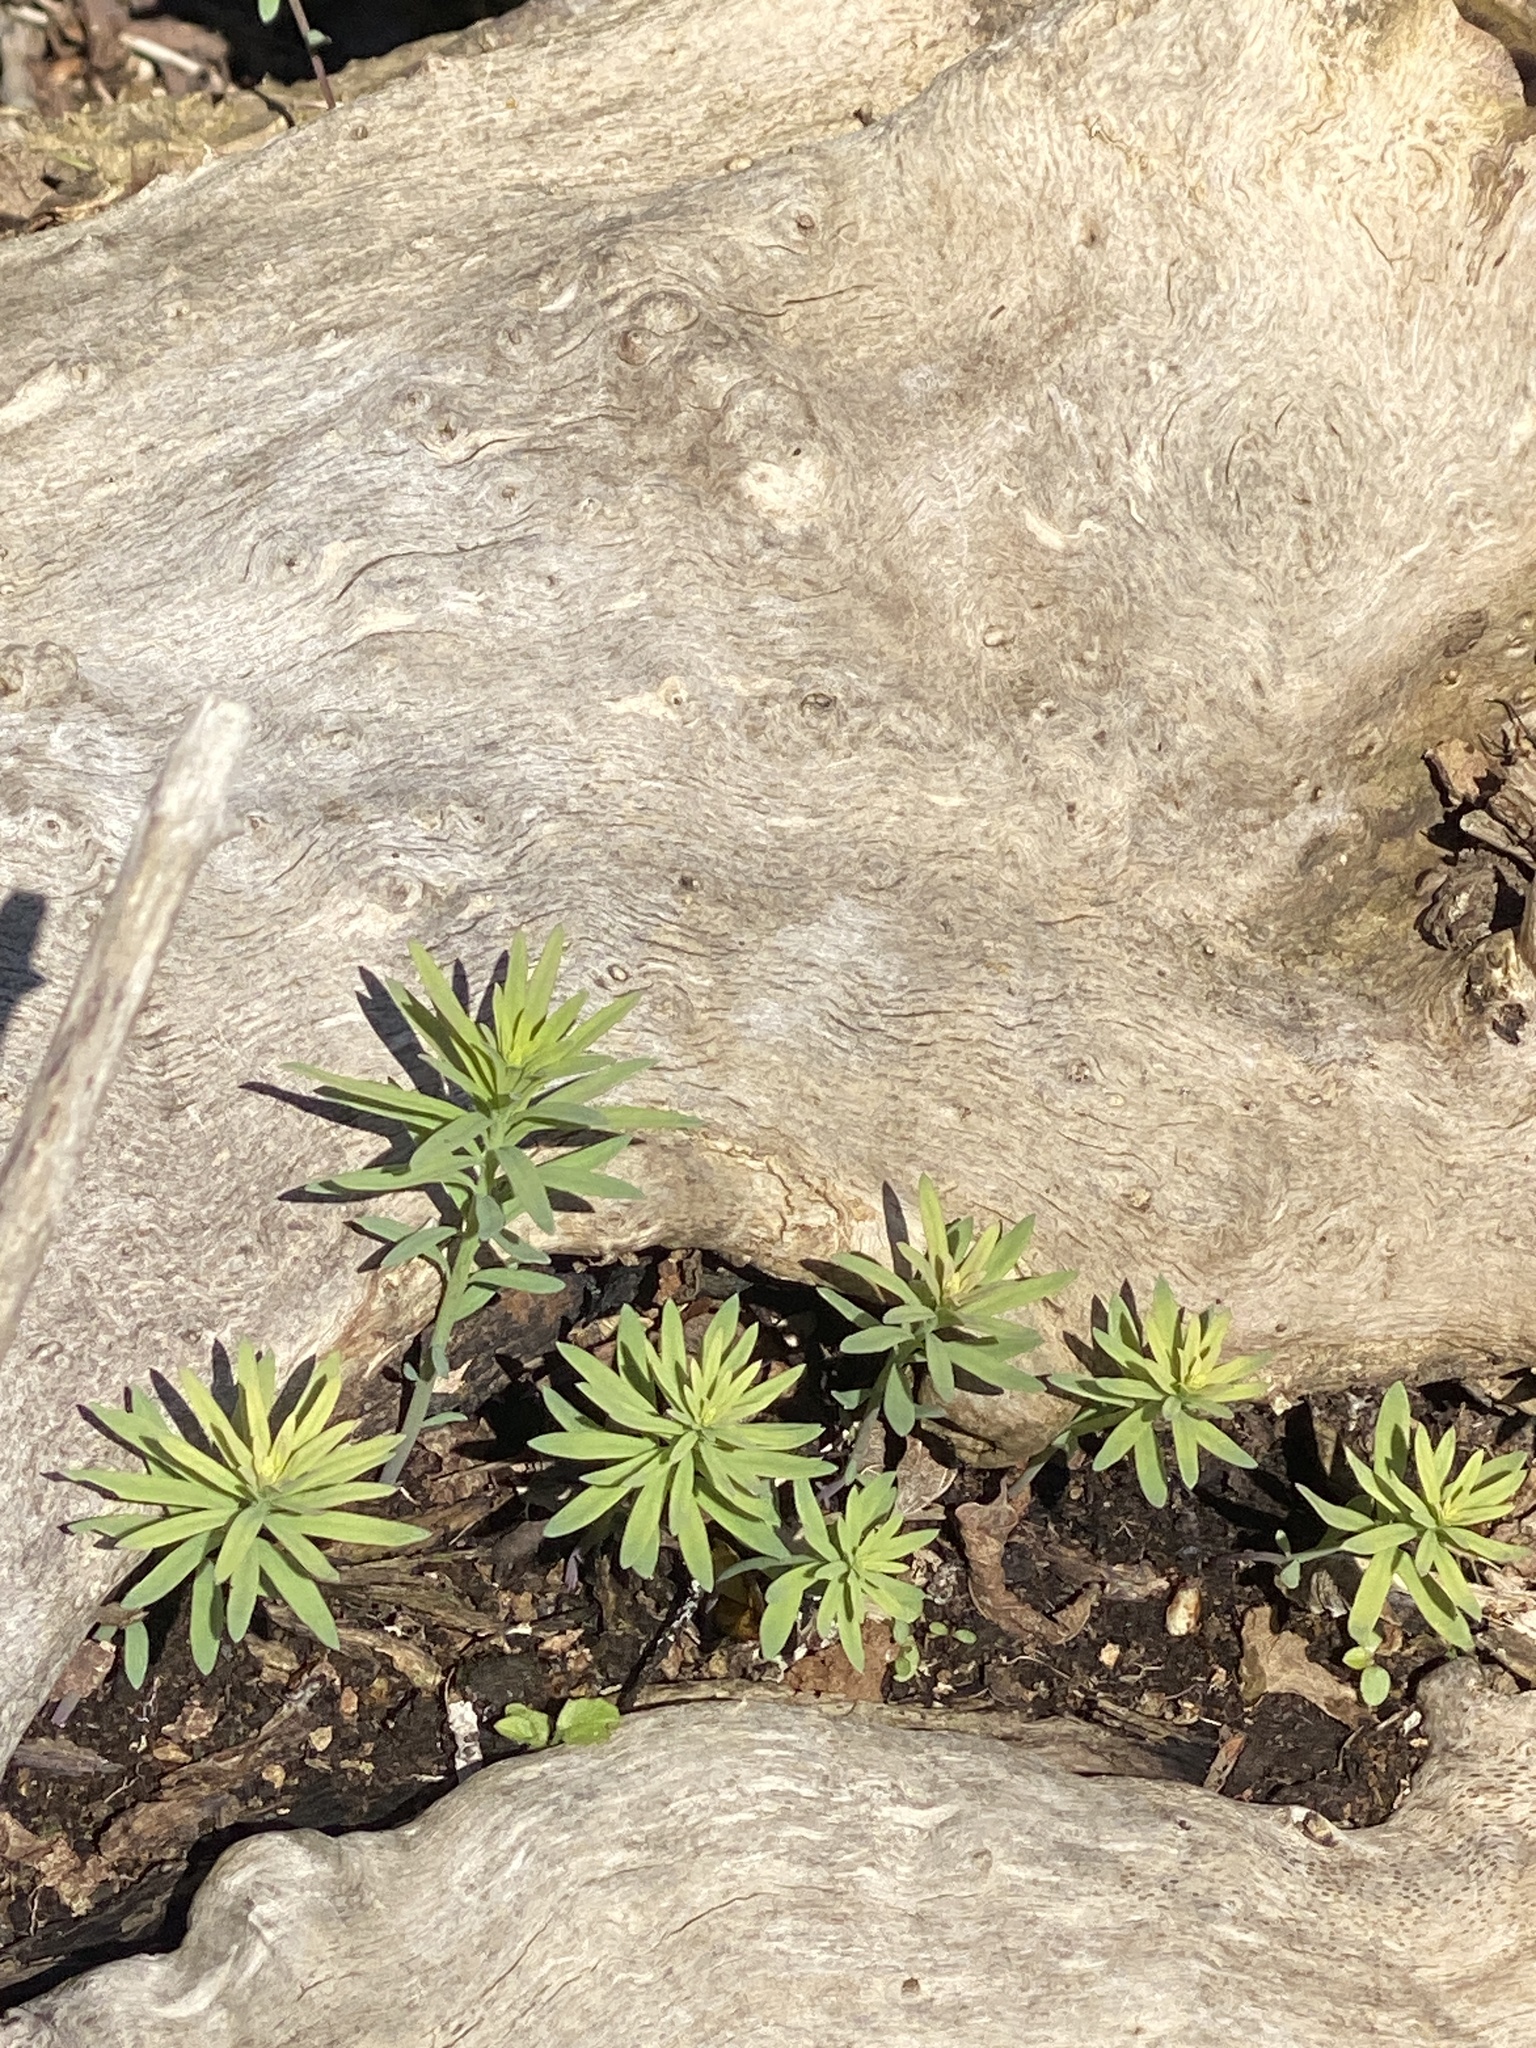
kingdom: Plantae
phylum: Tracheophyta
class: Magnoliopsida
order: Lamiales
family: Plantaginaceae
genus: Linaria
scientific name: Linaria vulgaris
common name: Butter and eggs
